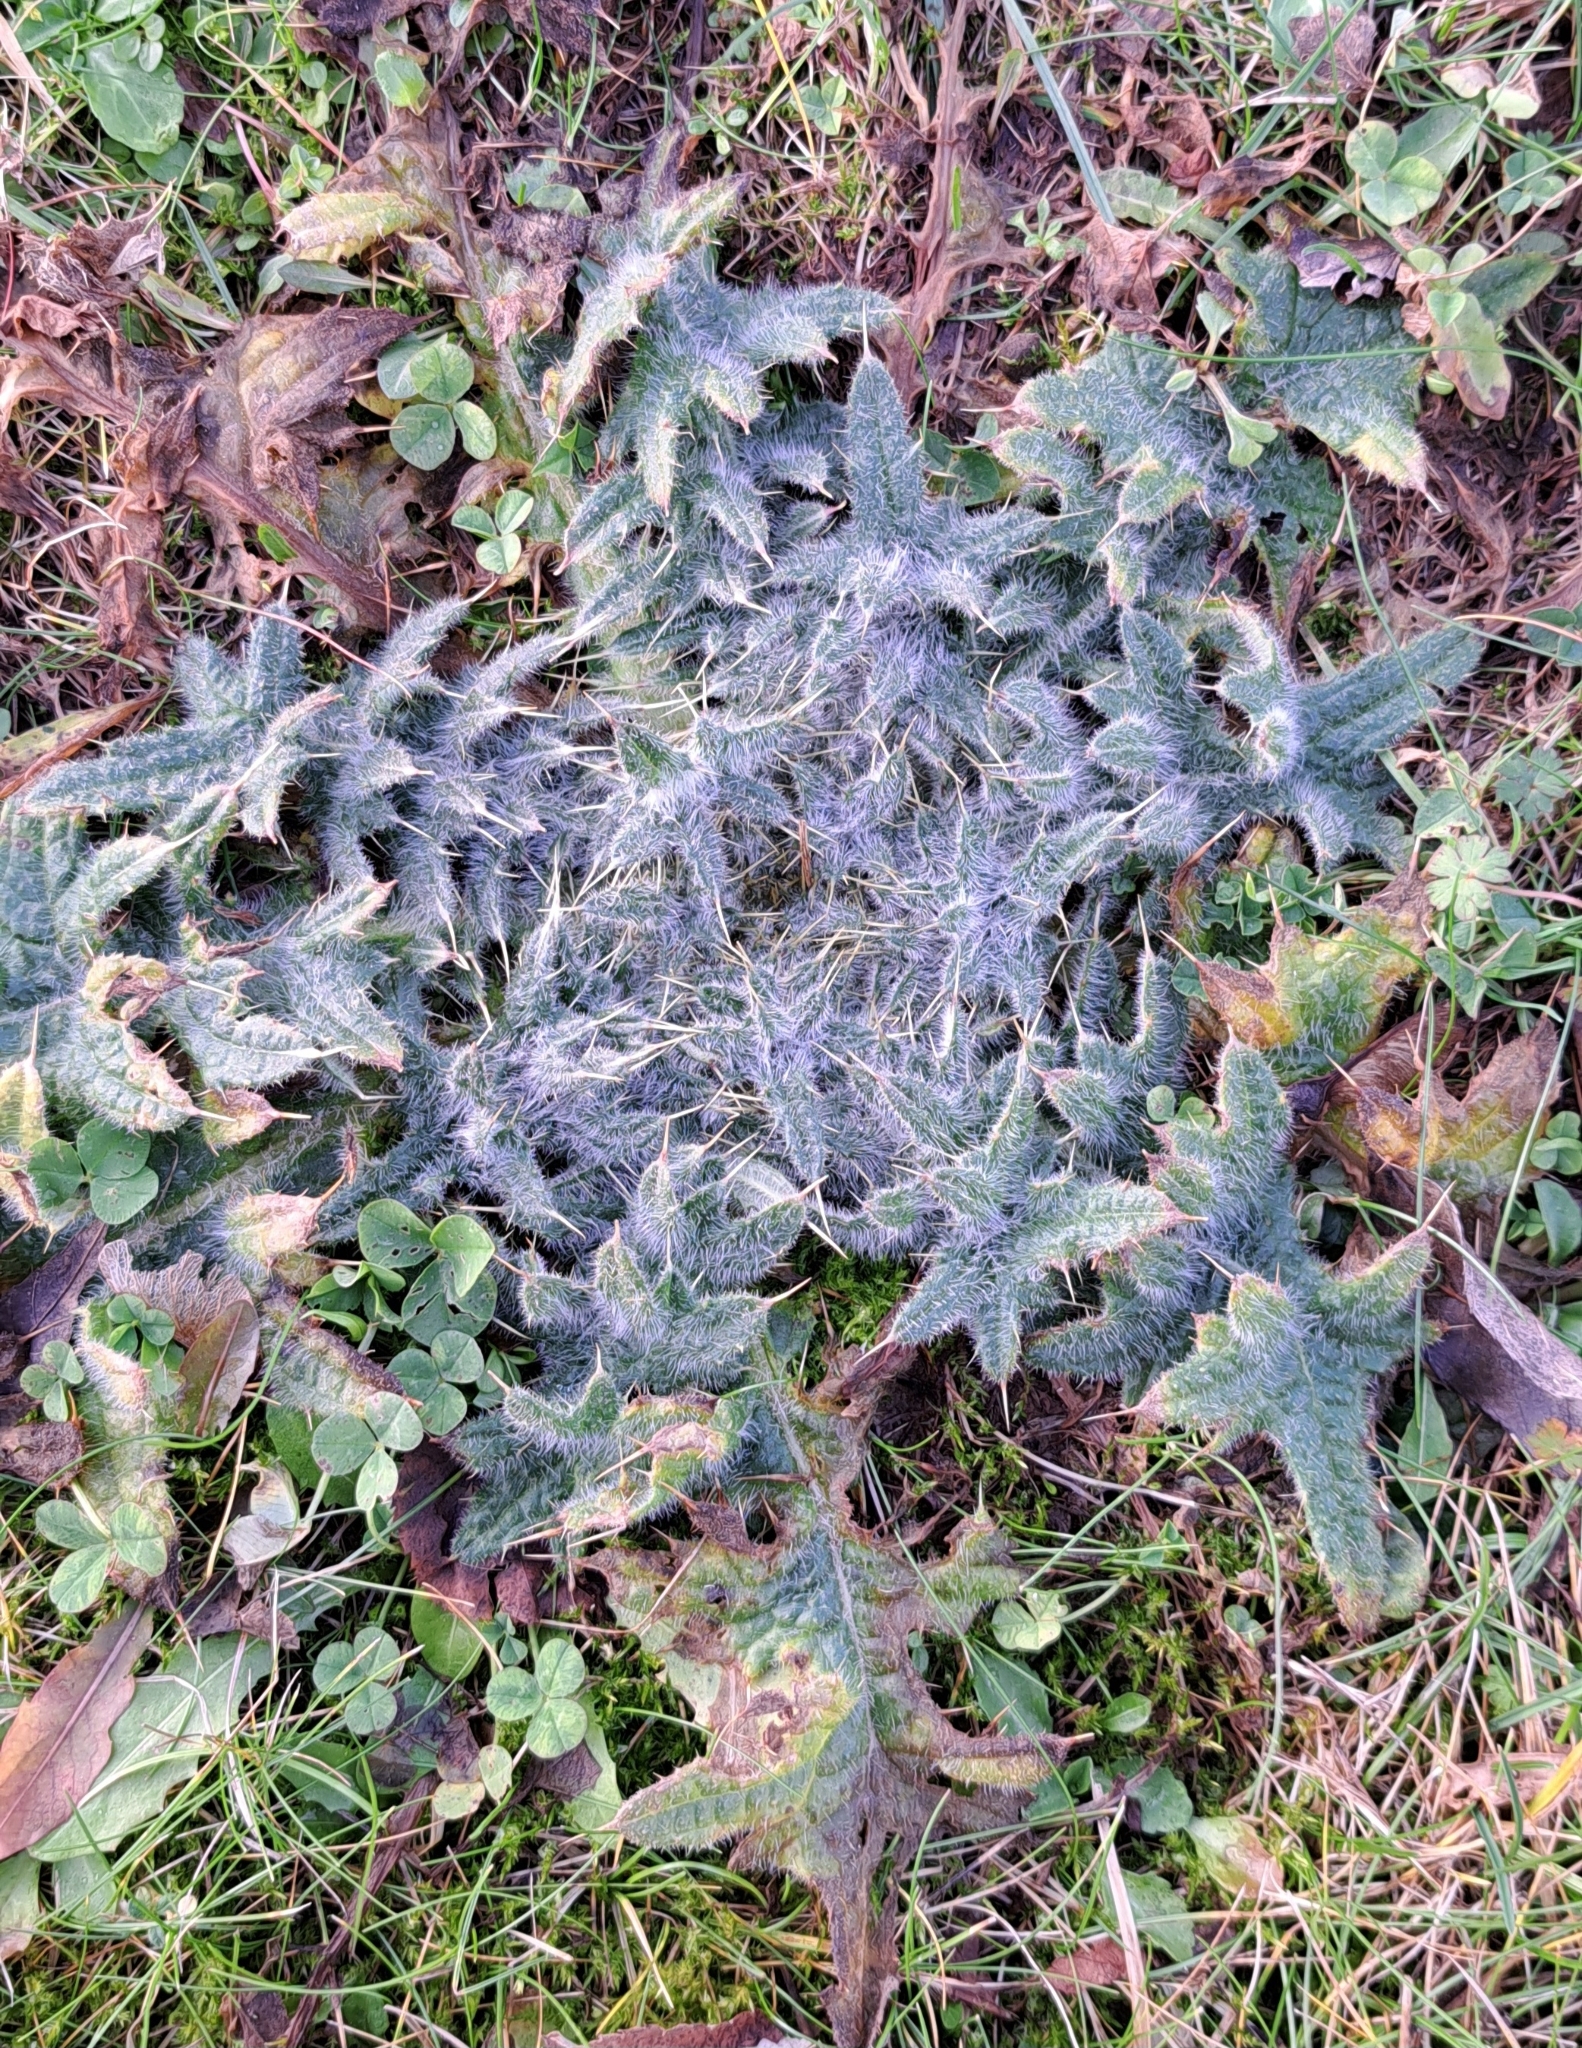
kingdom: Plantae
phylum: Tracheophyta
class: Magnoliopsida
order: Asterales
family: Asteraceae
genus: Cirsium
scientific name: Cirsium vulgare
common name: Bull thistle
